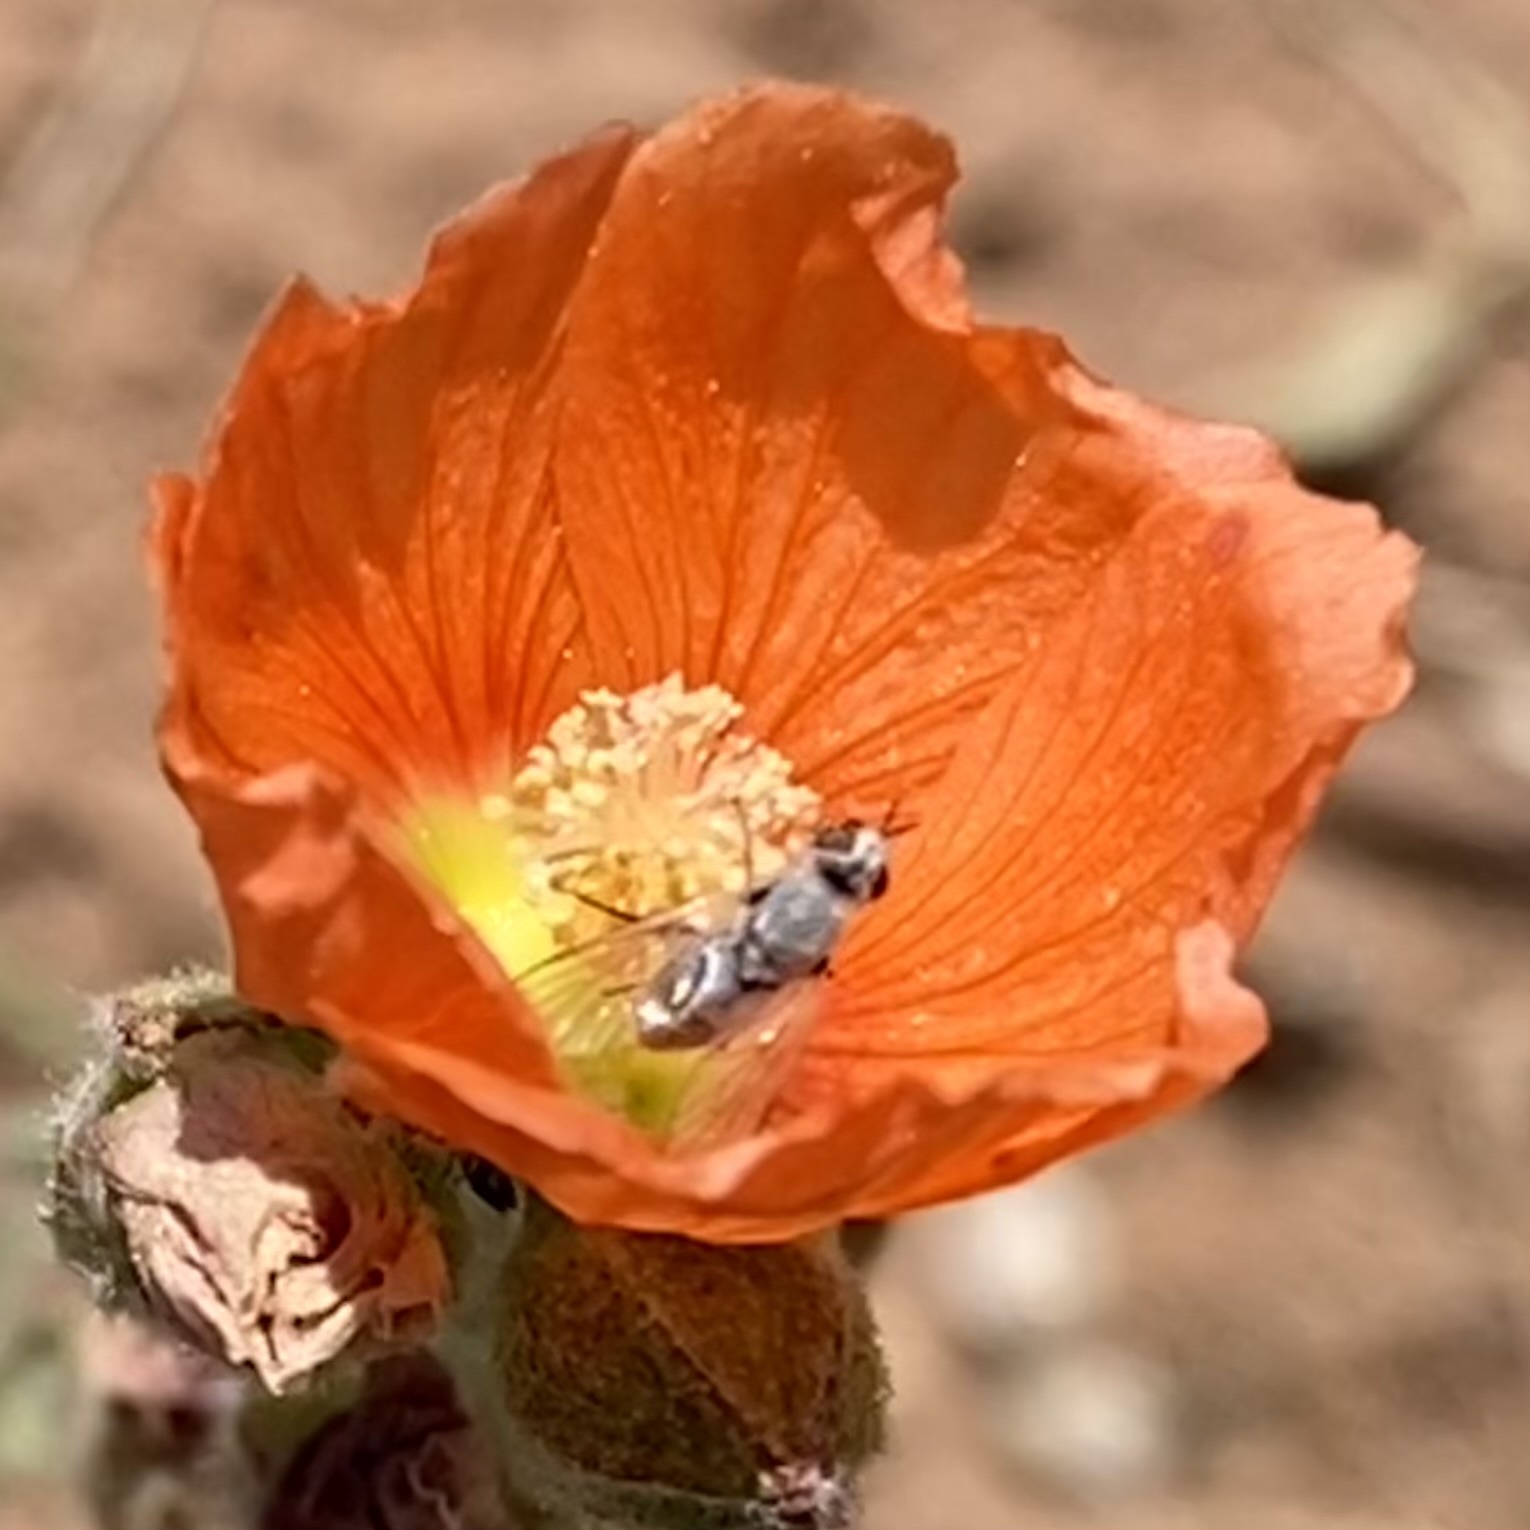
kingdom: Animalia
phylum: Arthropoda
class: Insecta
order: Diptera
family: Bombyliidae
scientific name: Bombyliidae
